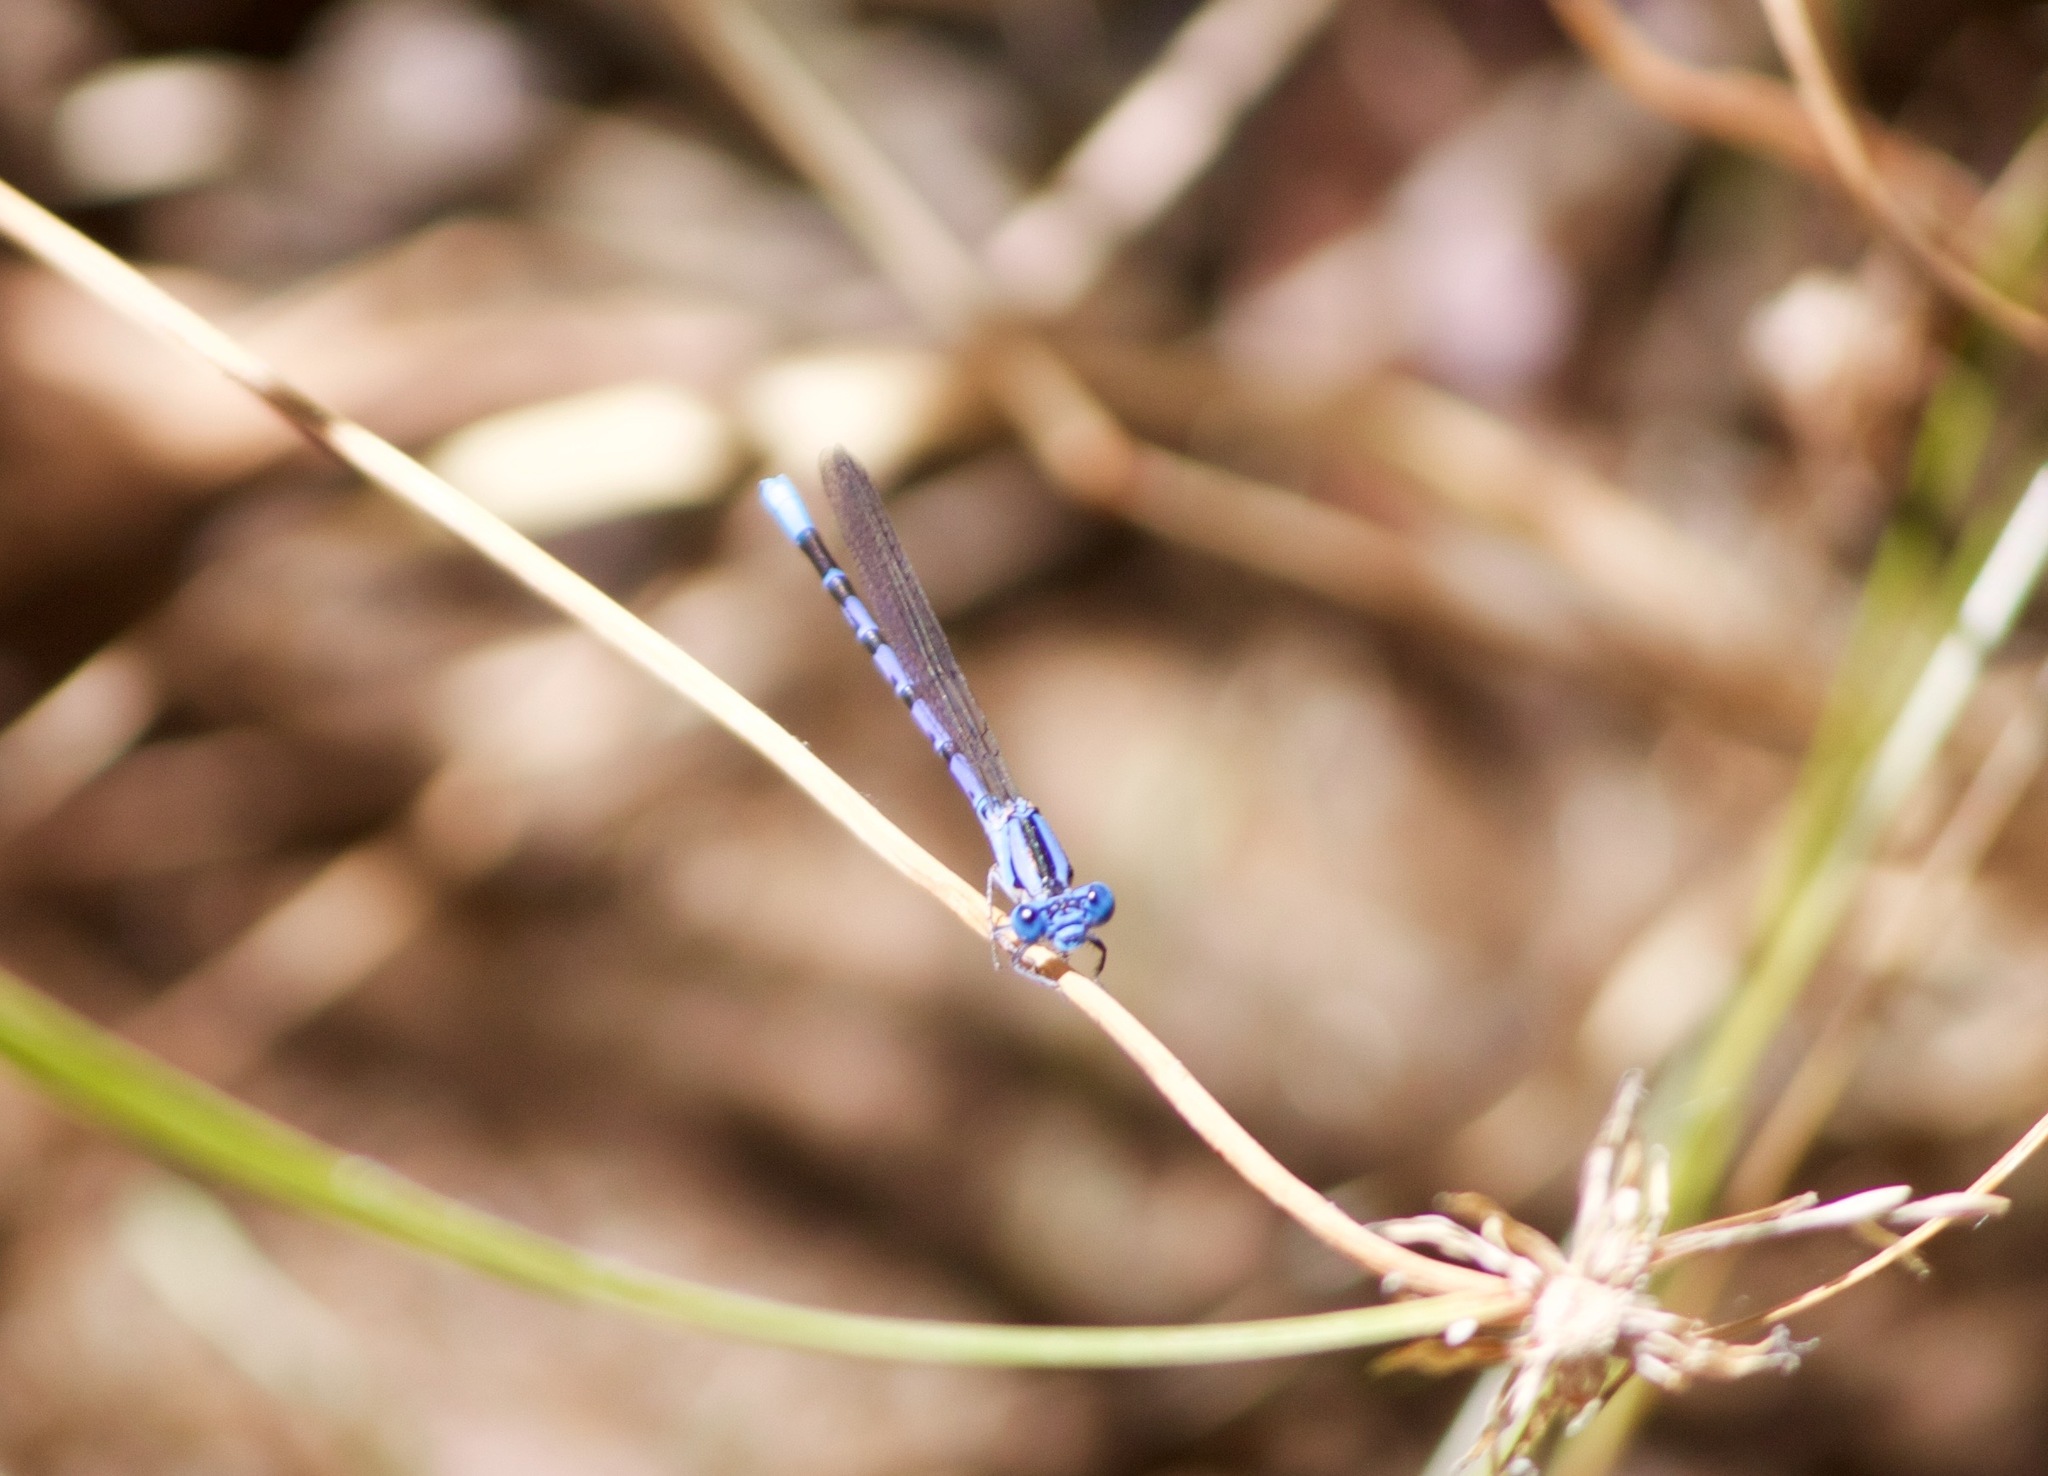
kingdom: Animalia
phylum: Arthropoda
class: Insecta
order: Odonata
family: Coenagrionidae
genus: Argia
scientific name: Argia vivida
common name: Vivid dancer
